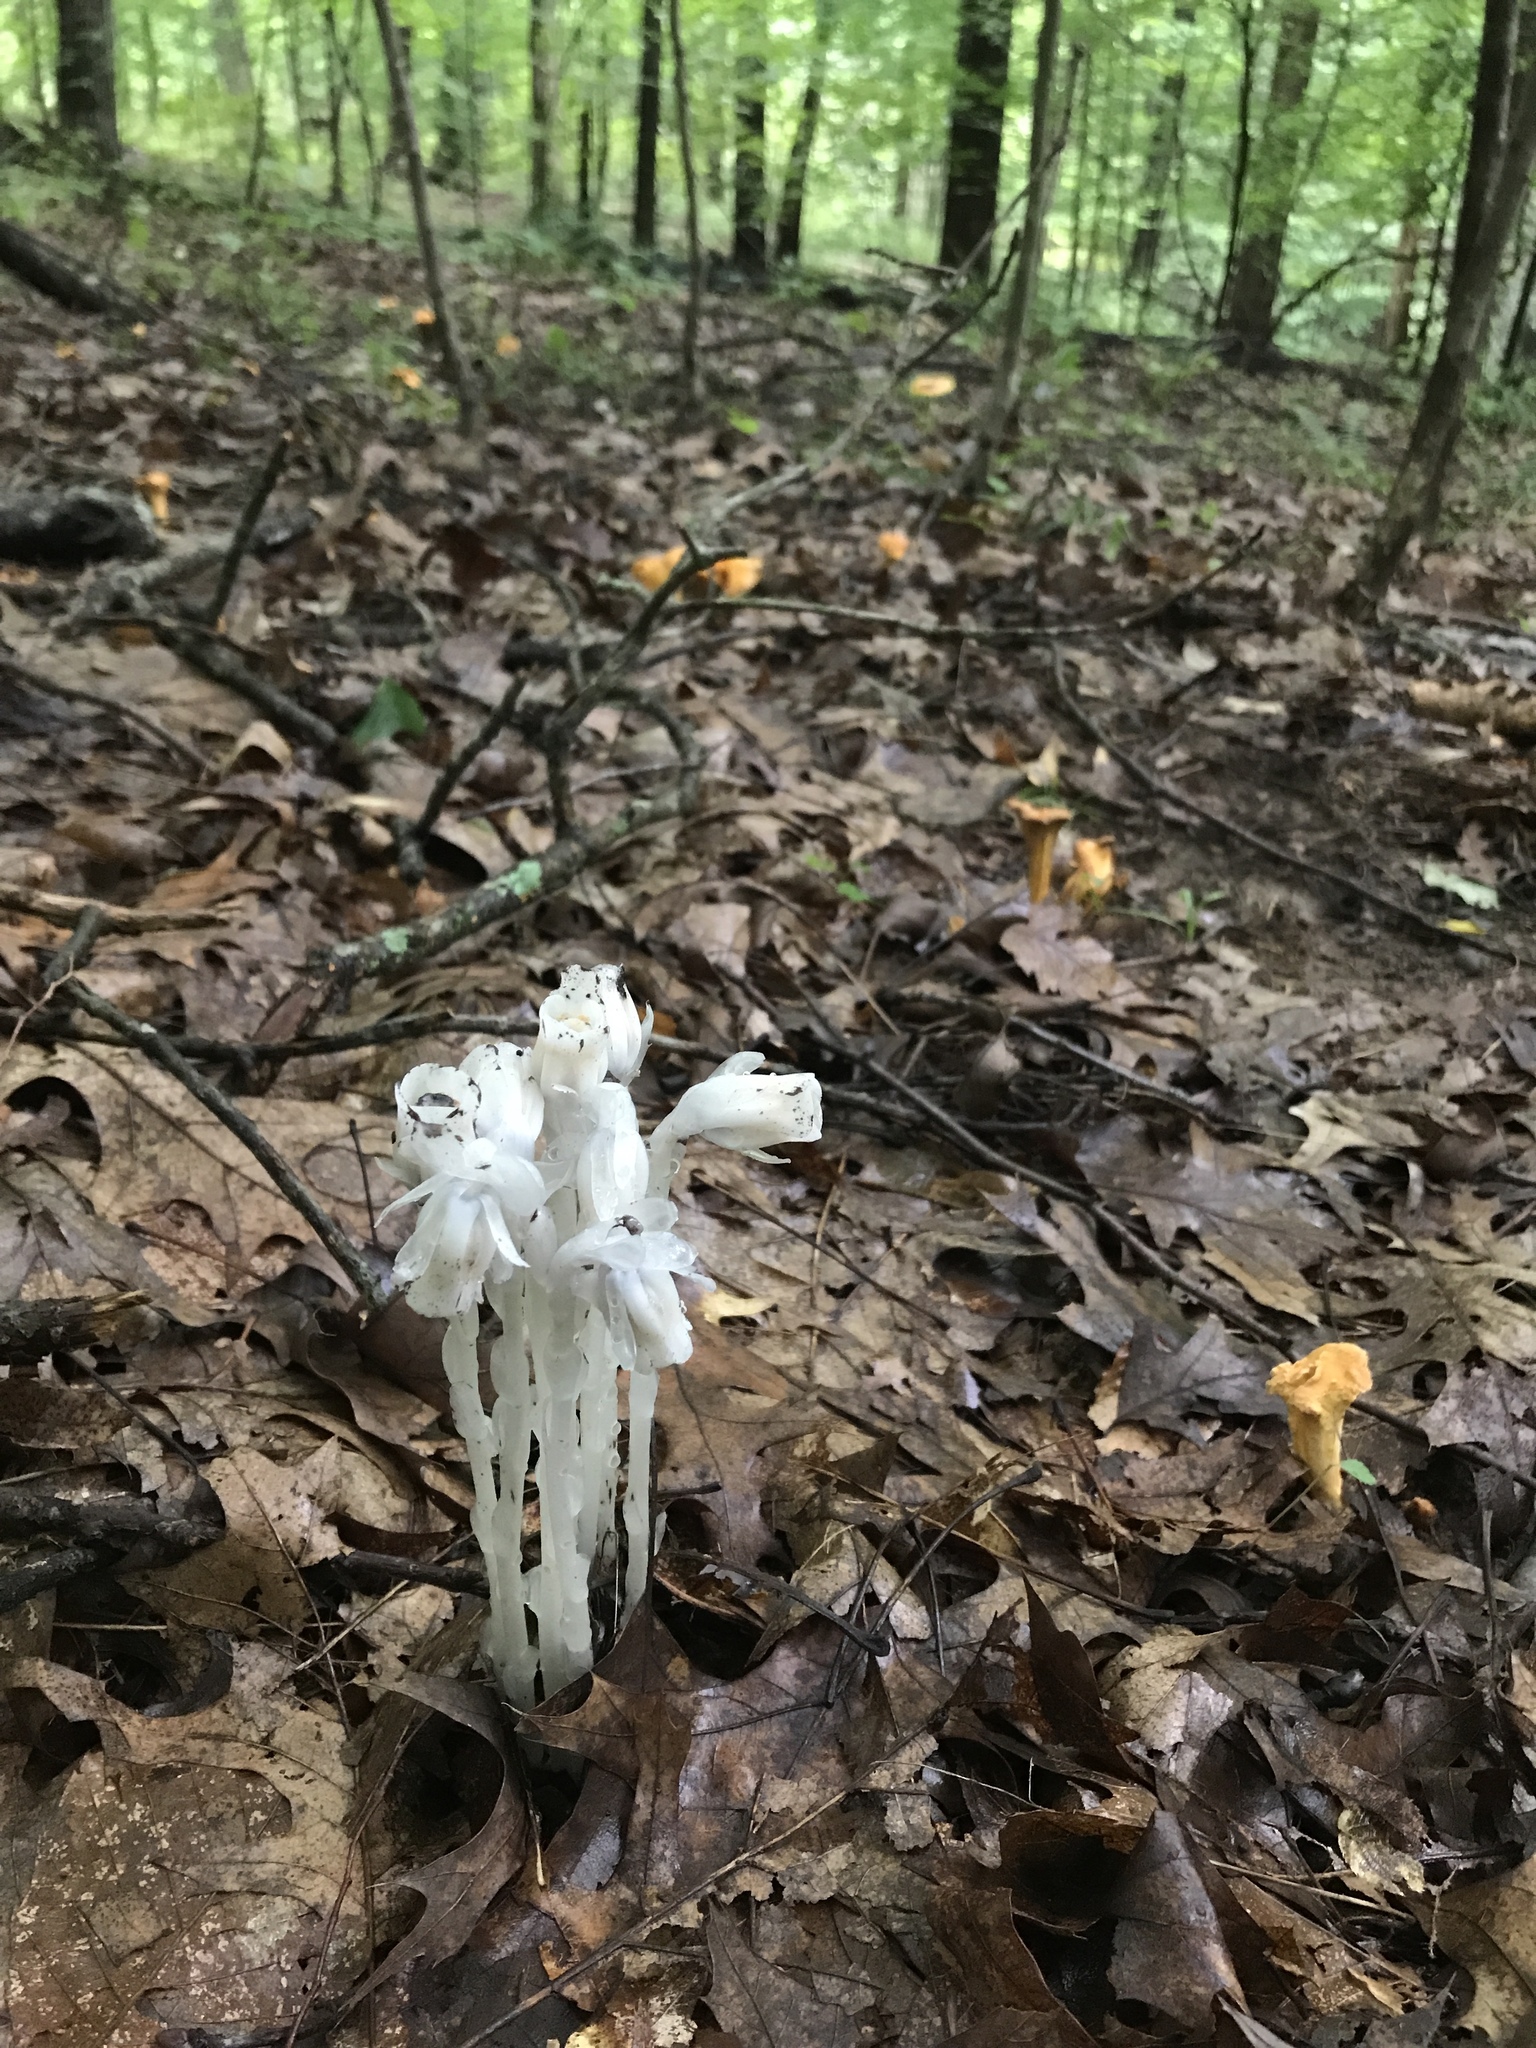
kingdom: Plantae
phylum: Tracheophyta
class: Magnoliopsida
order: Ericales
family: Ericaceae
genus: Monotropa
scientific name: Monotropa uniflora
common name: Convulsion root
